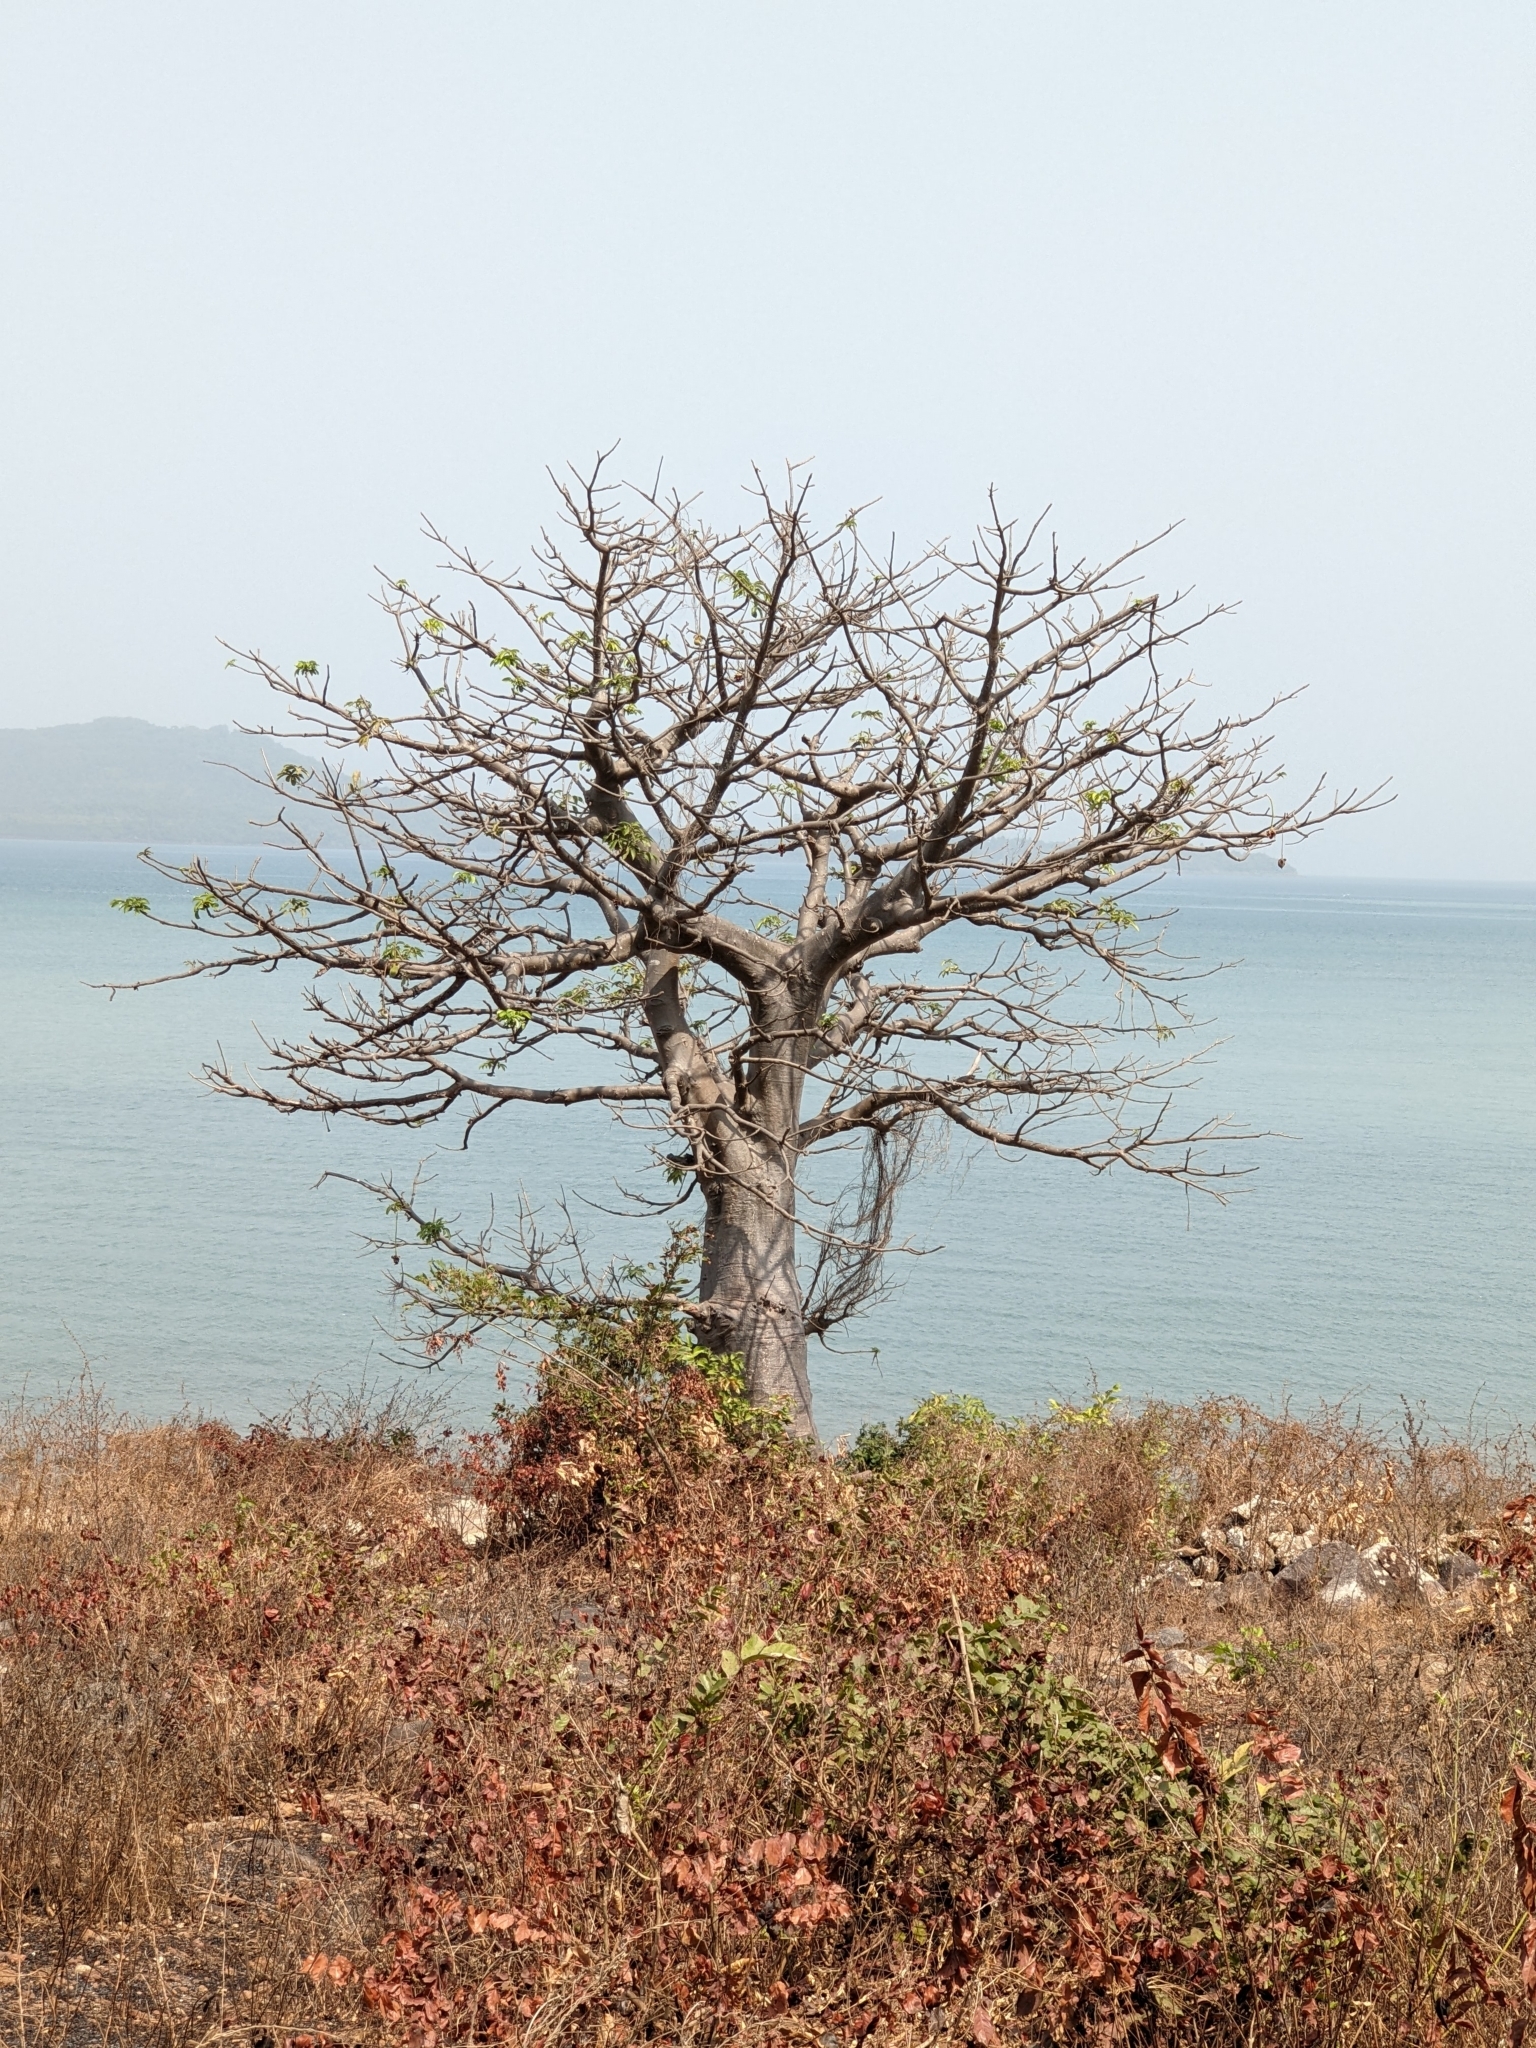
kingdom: Plantae
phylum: Tracheophyta
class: Magnoliopsida
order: Malvales
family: Malvaceae
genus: Adansonia
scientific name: Adansonia digitata
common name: Dead-rat-tree
